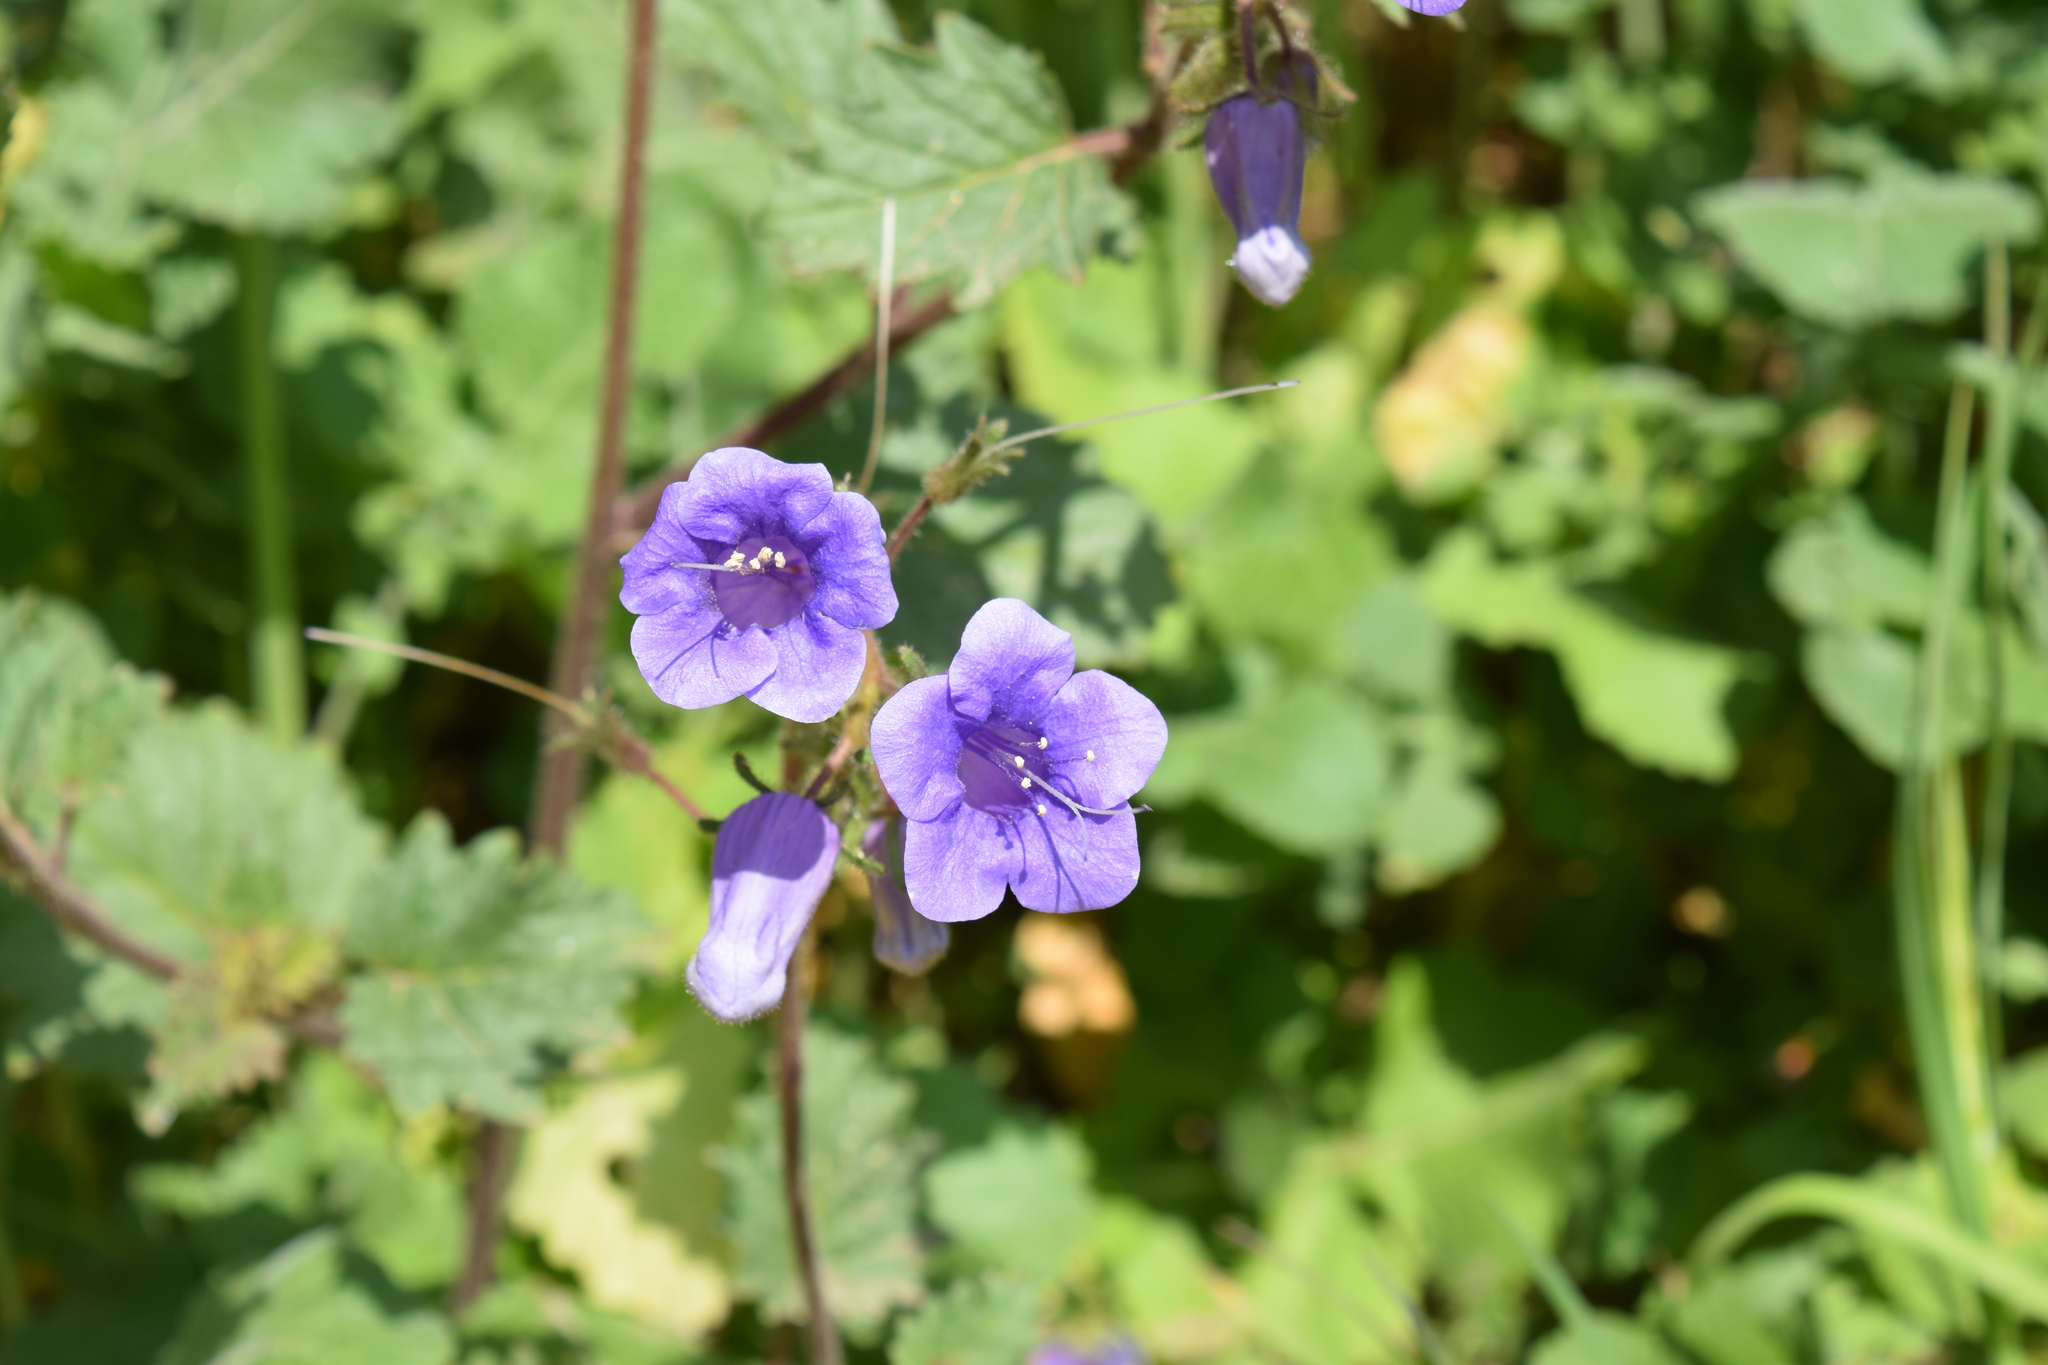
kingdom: Plantae
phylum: Tracheophyta
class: Magnoliopsida
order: Boraginales
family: Hydrophyllaceae
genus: Phacelia
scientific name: Phacelia minor
